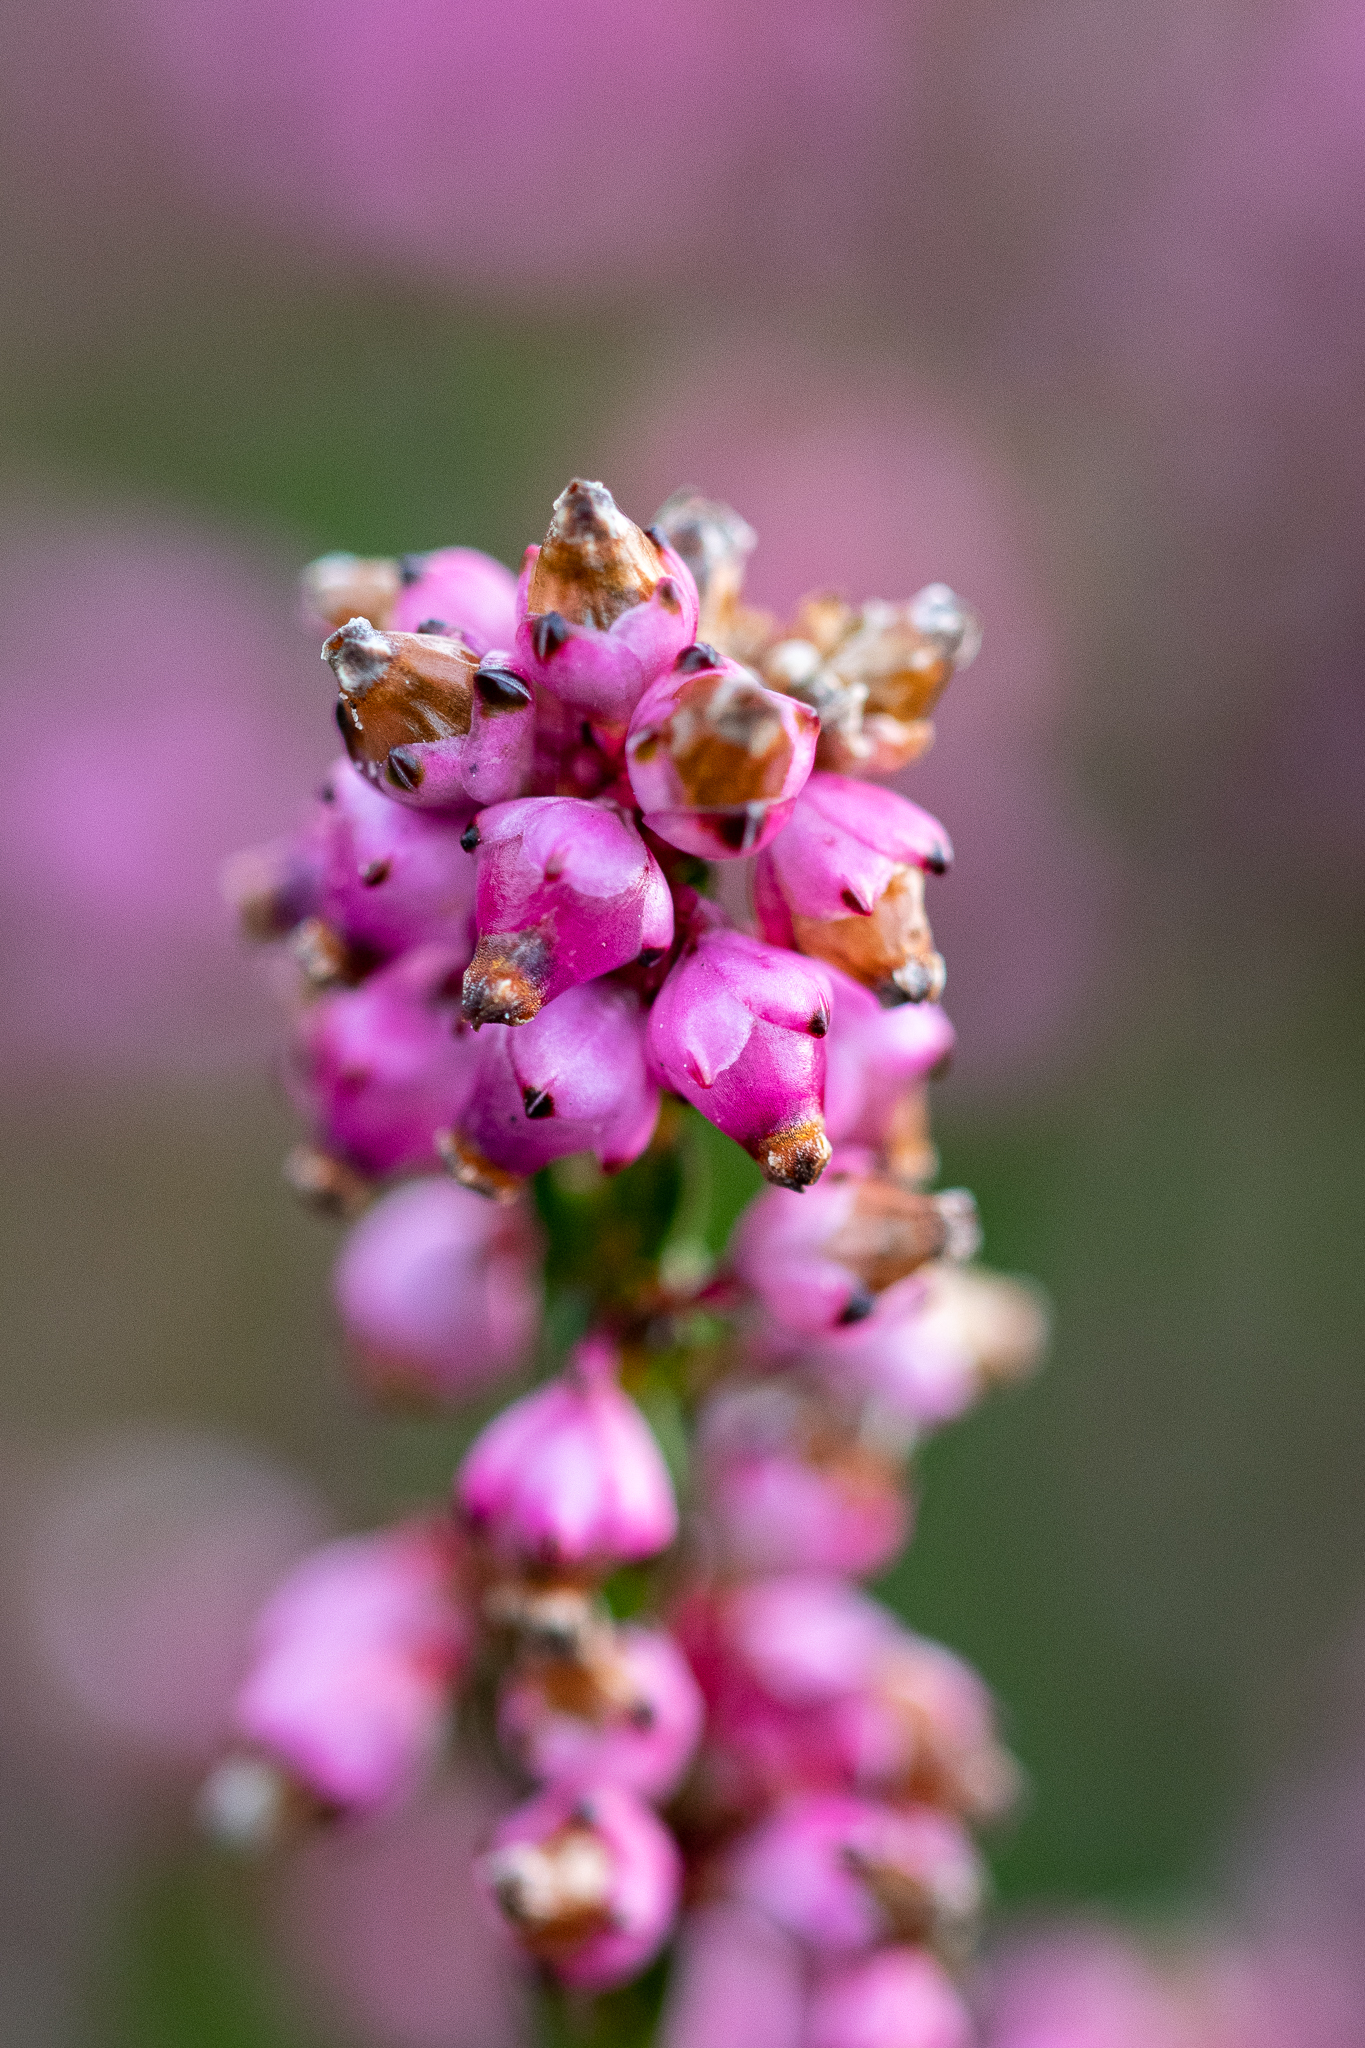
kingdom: Plantae
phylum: Tracheophyta
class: Magnoliopsida
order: Ericales
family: Ericaceae
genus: Erica
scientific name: Erica rhopalantha
